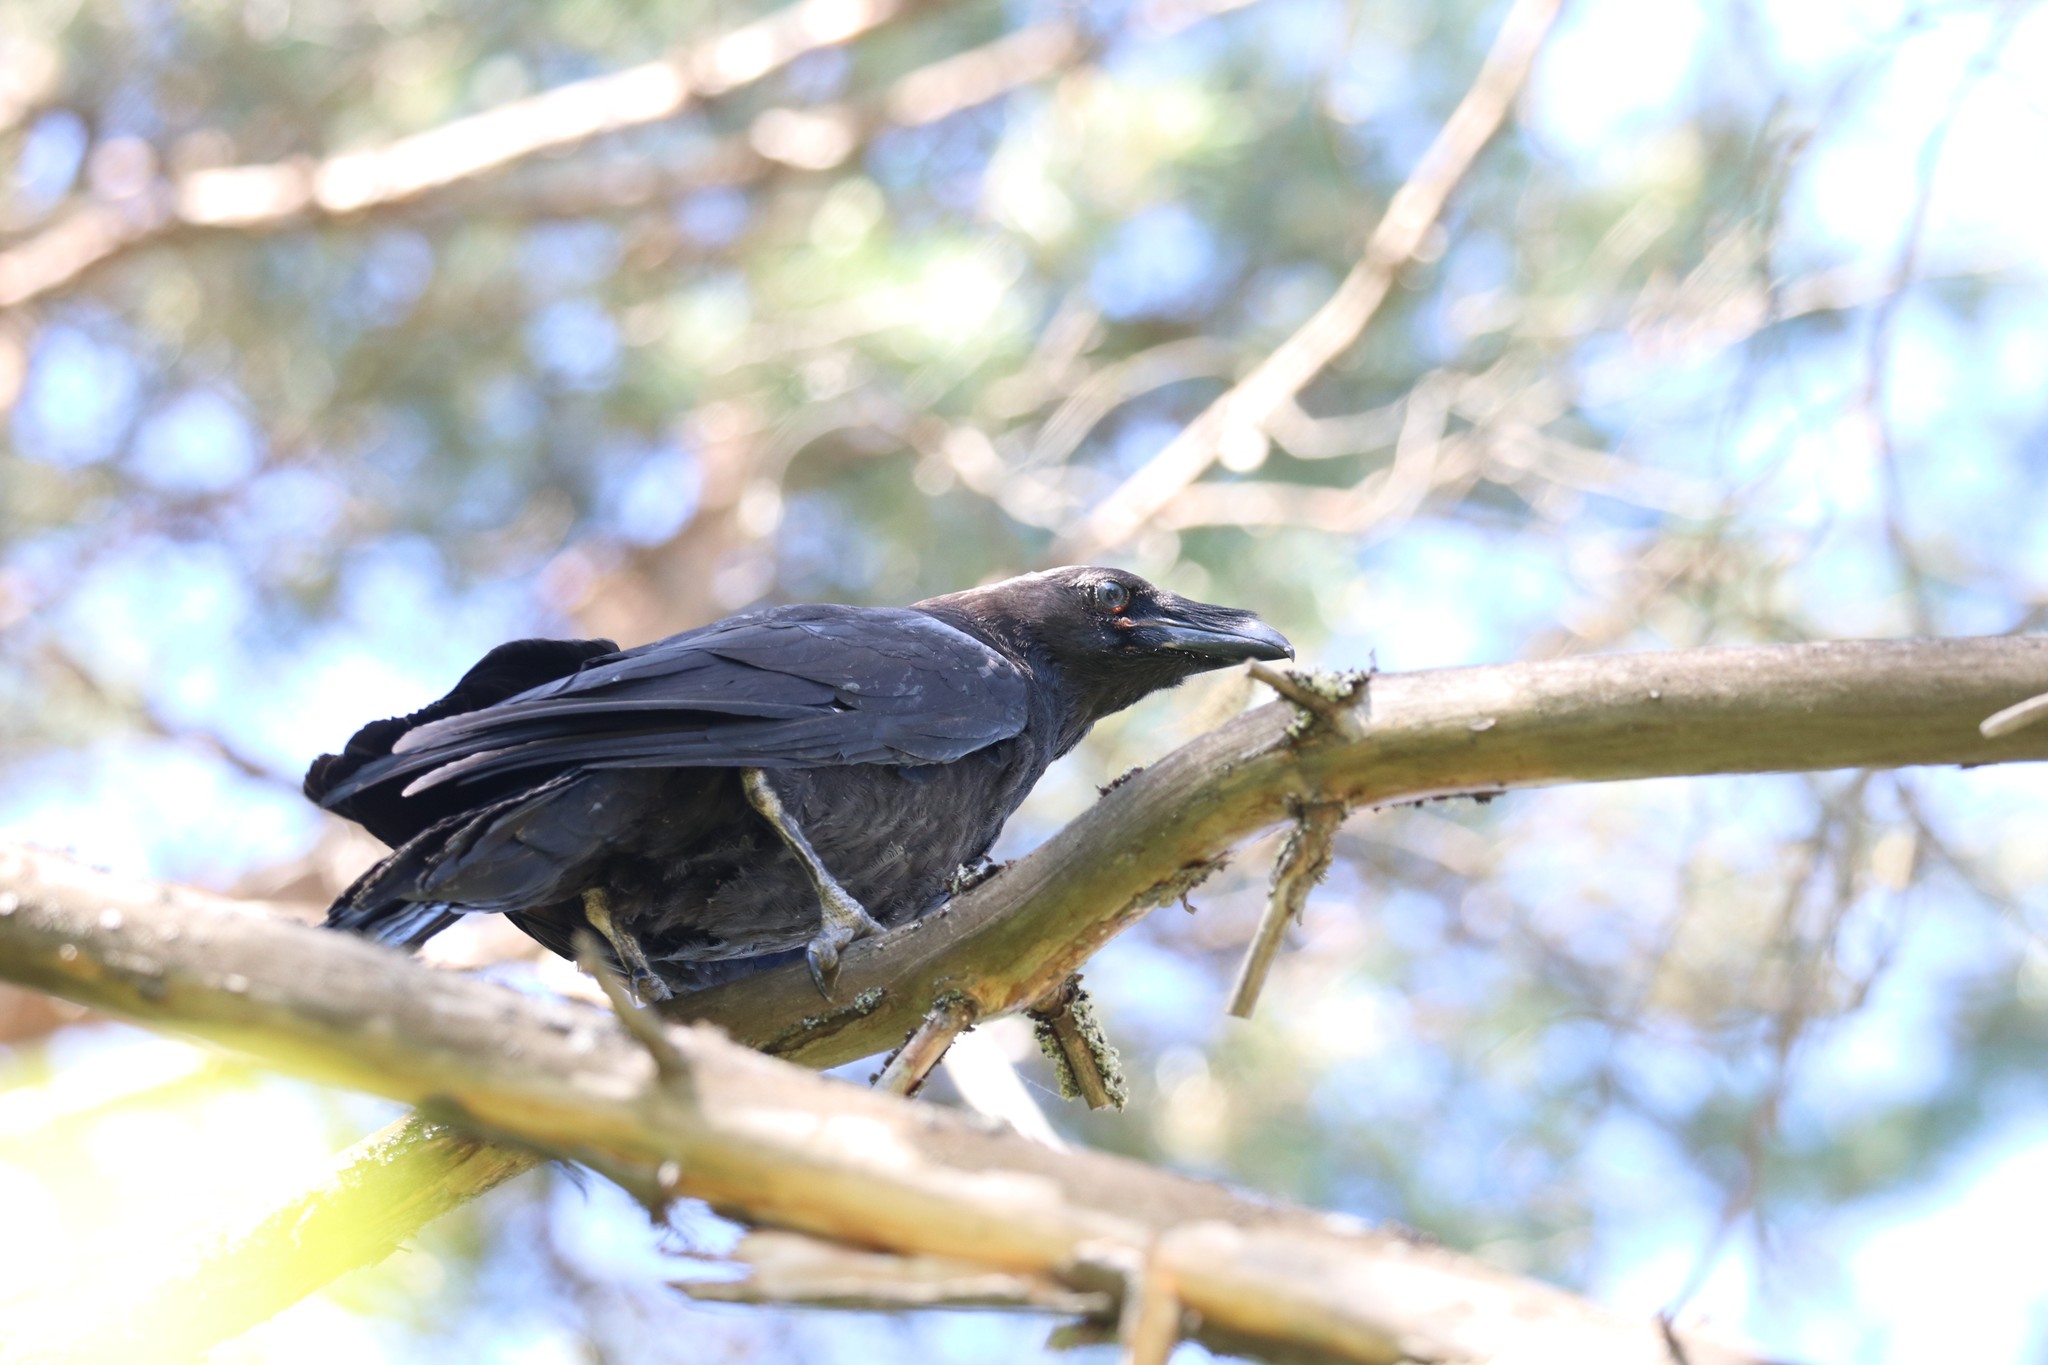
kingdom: Animalia
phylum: Chordata
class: Aves
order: Passeriformes
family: Corvidae
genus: Corvus
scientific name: Corvus corax
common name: Common raven
